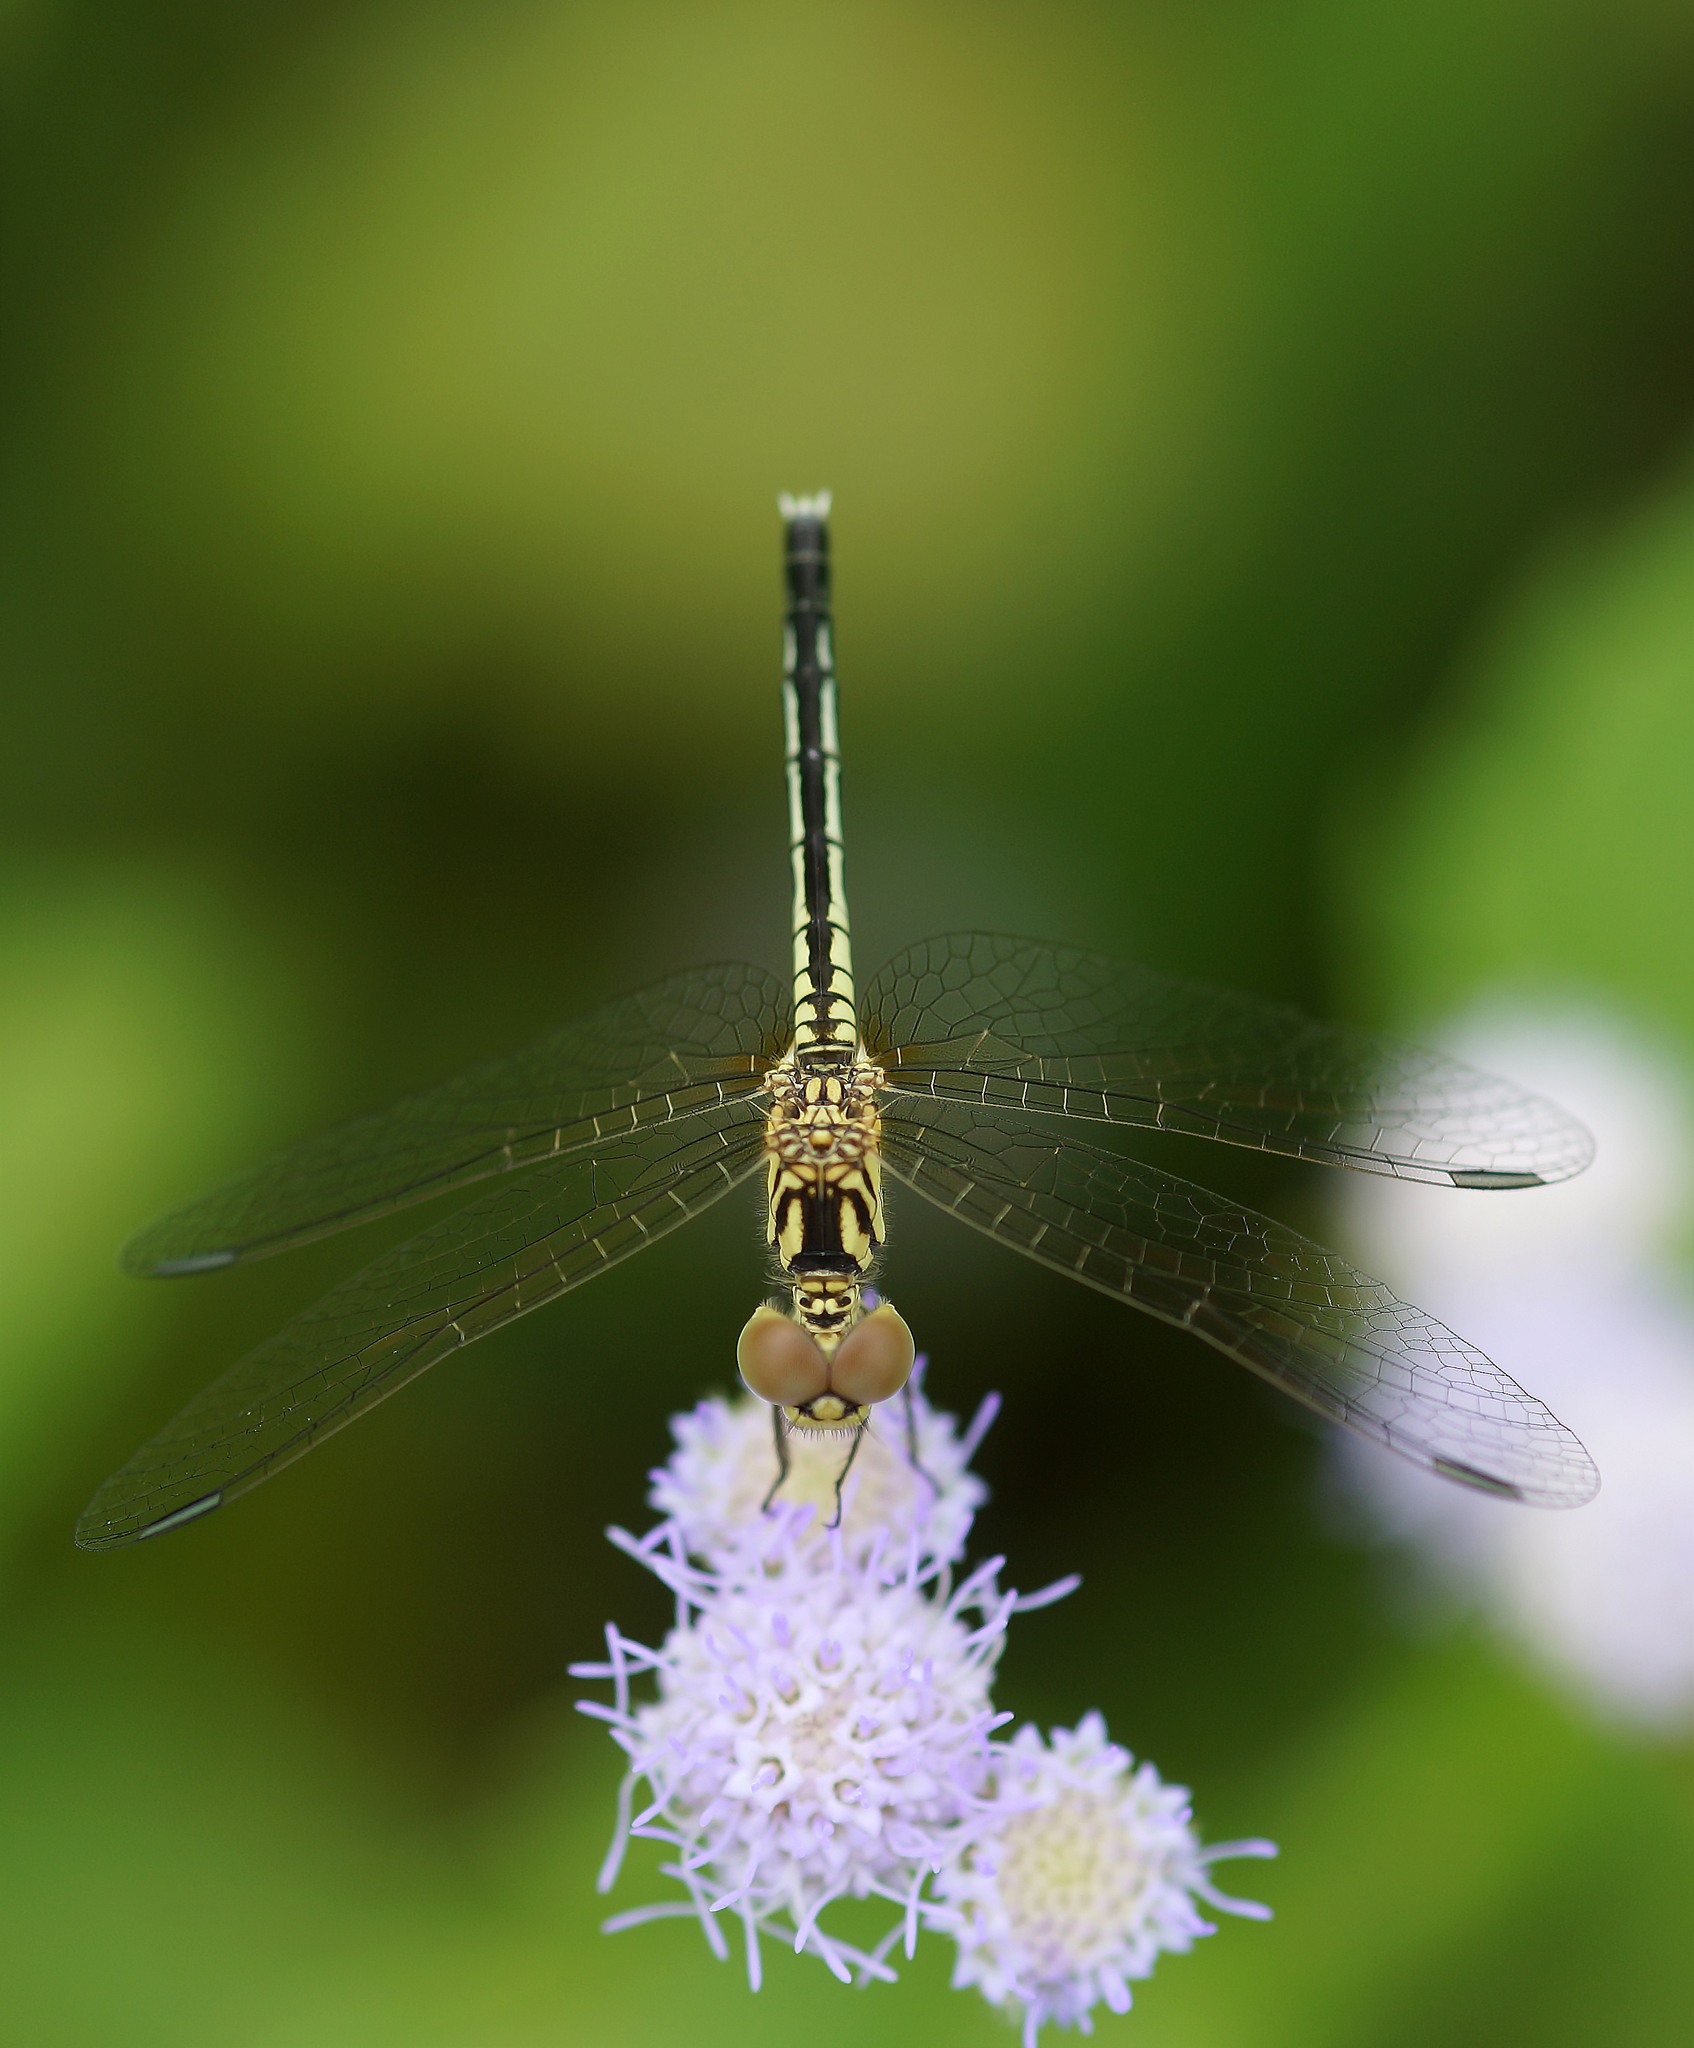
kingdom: Animalia
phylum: Arthropoda
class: Insecta
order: Odonata
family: Libellulidae
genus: Diplacodes
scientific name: Diplacodes nebulosa
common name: Black-tipped percher
